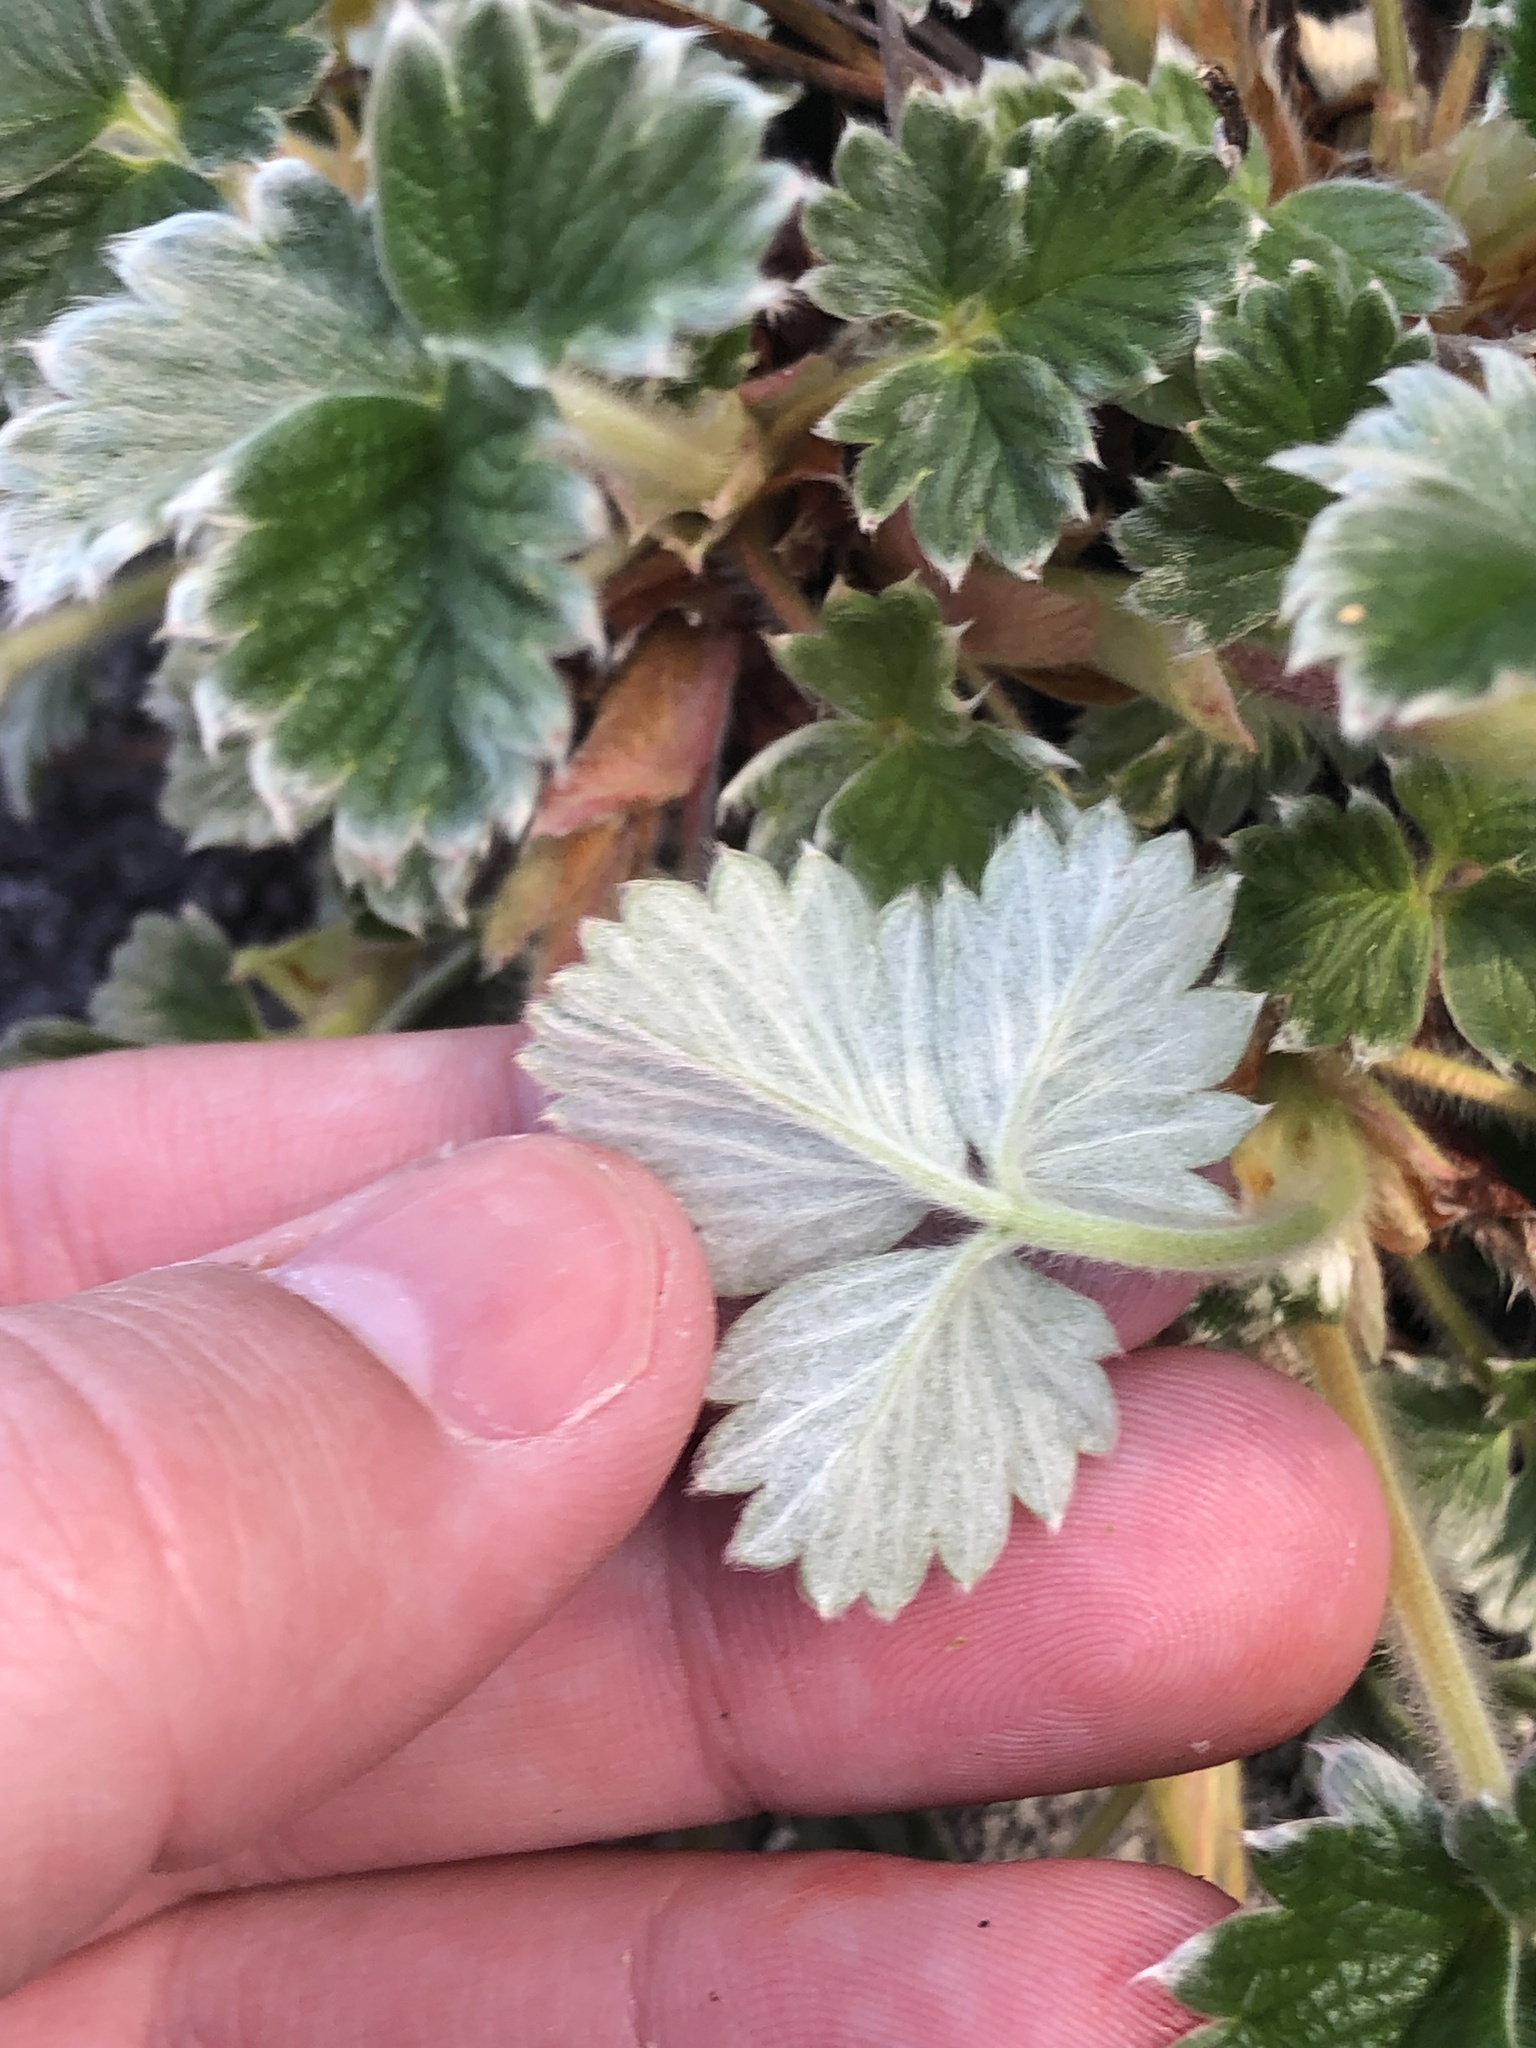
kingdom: Plantae
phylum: Tracheophyta
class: Magnoliopsida
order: Rosales
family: Rosaceae
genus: Potentilla
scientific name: Potentilla villosa
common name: Northern cinquefoil
